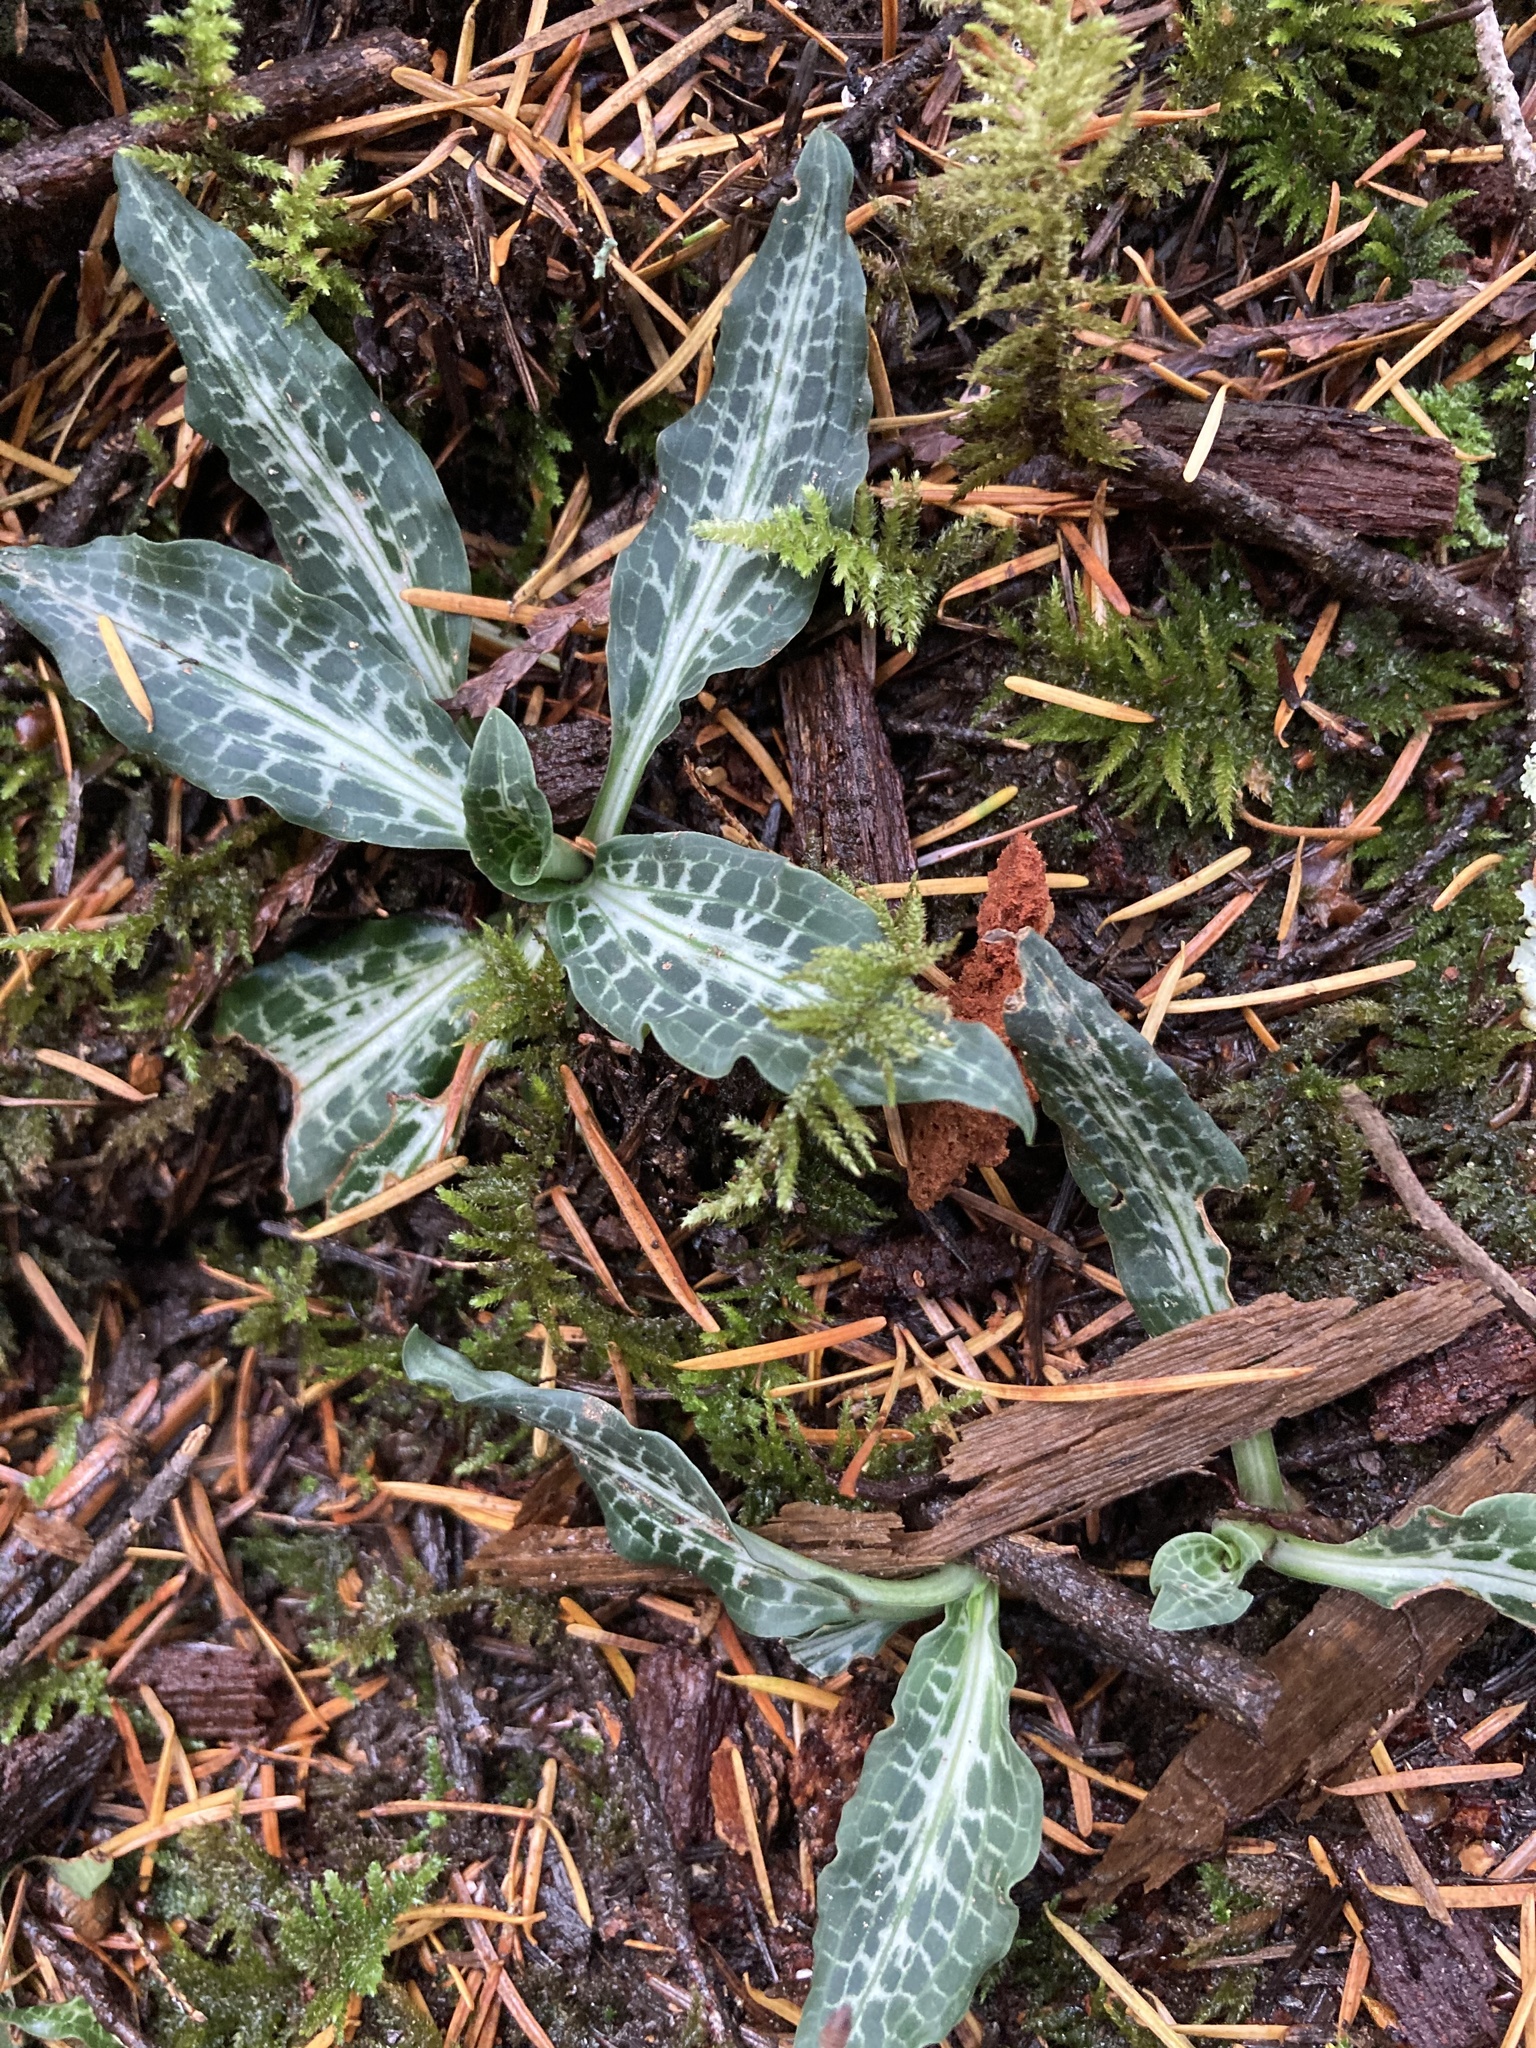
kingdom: Plantae
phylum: Tracheophyta
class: Liliopsida
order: Asparagales
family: Orchidaceae
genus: Goodyera
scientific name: Goodyera oblongifolia
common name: Giant rattlesnake-plantain
